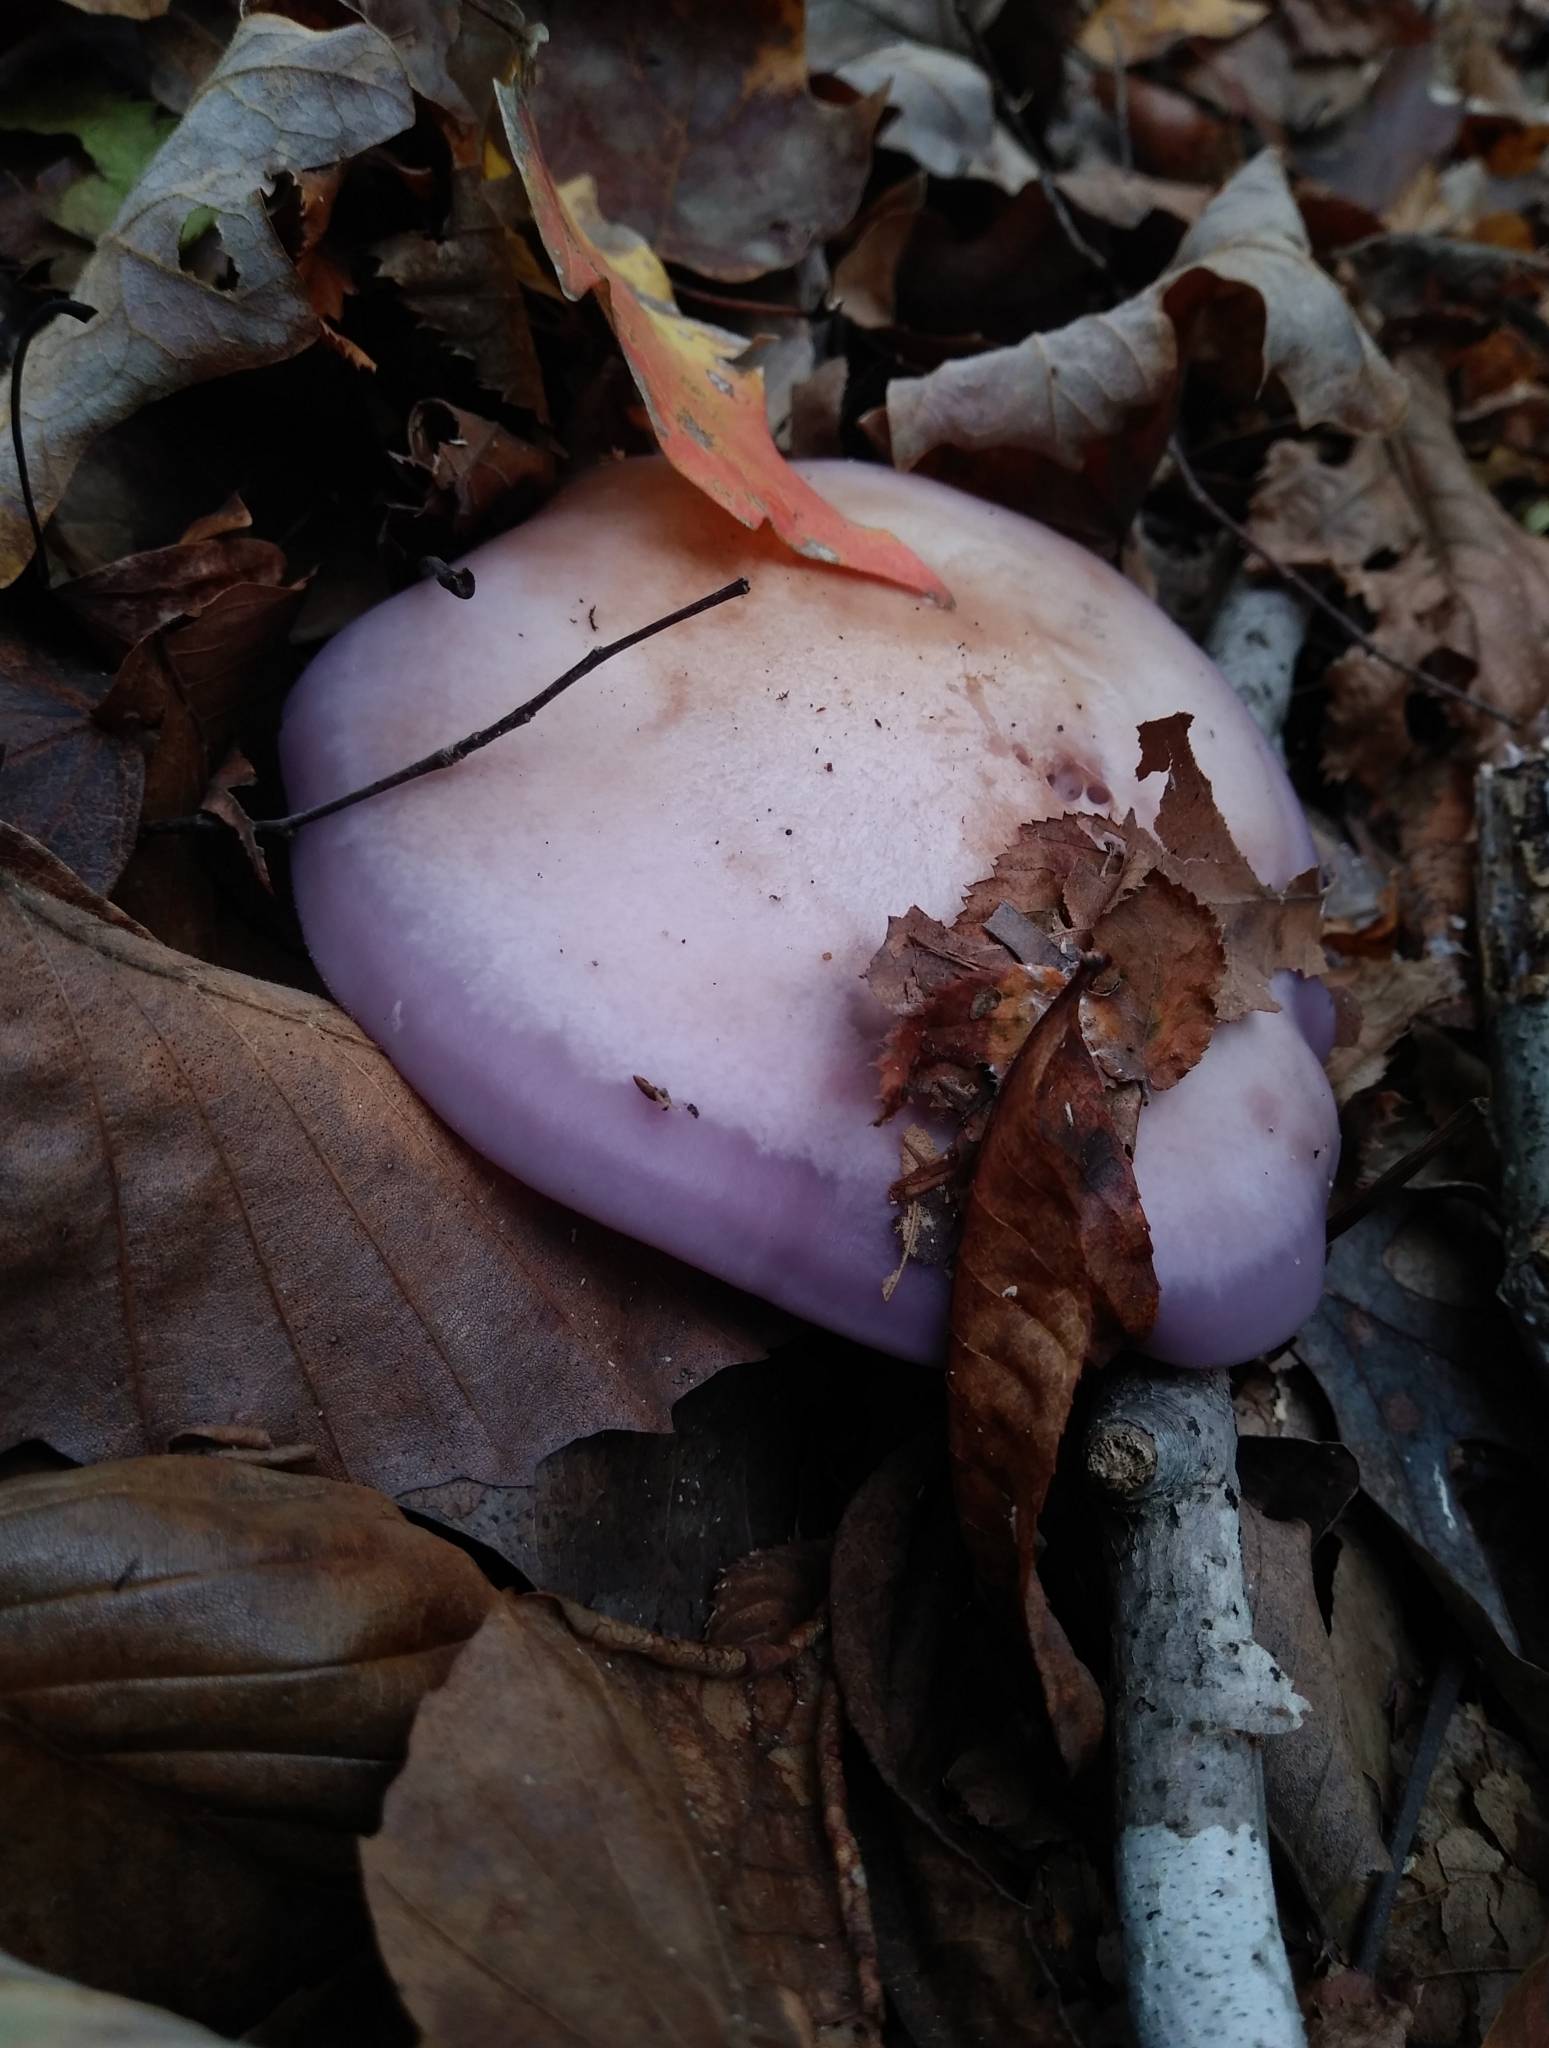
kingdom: Fungi
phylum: Basidiomycota
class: Agaricomycetes
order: Agaricales
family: Tricholomataceae
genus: Collybia
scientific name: Collybia
